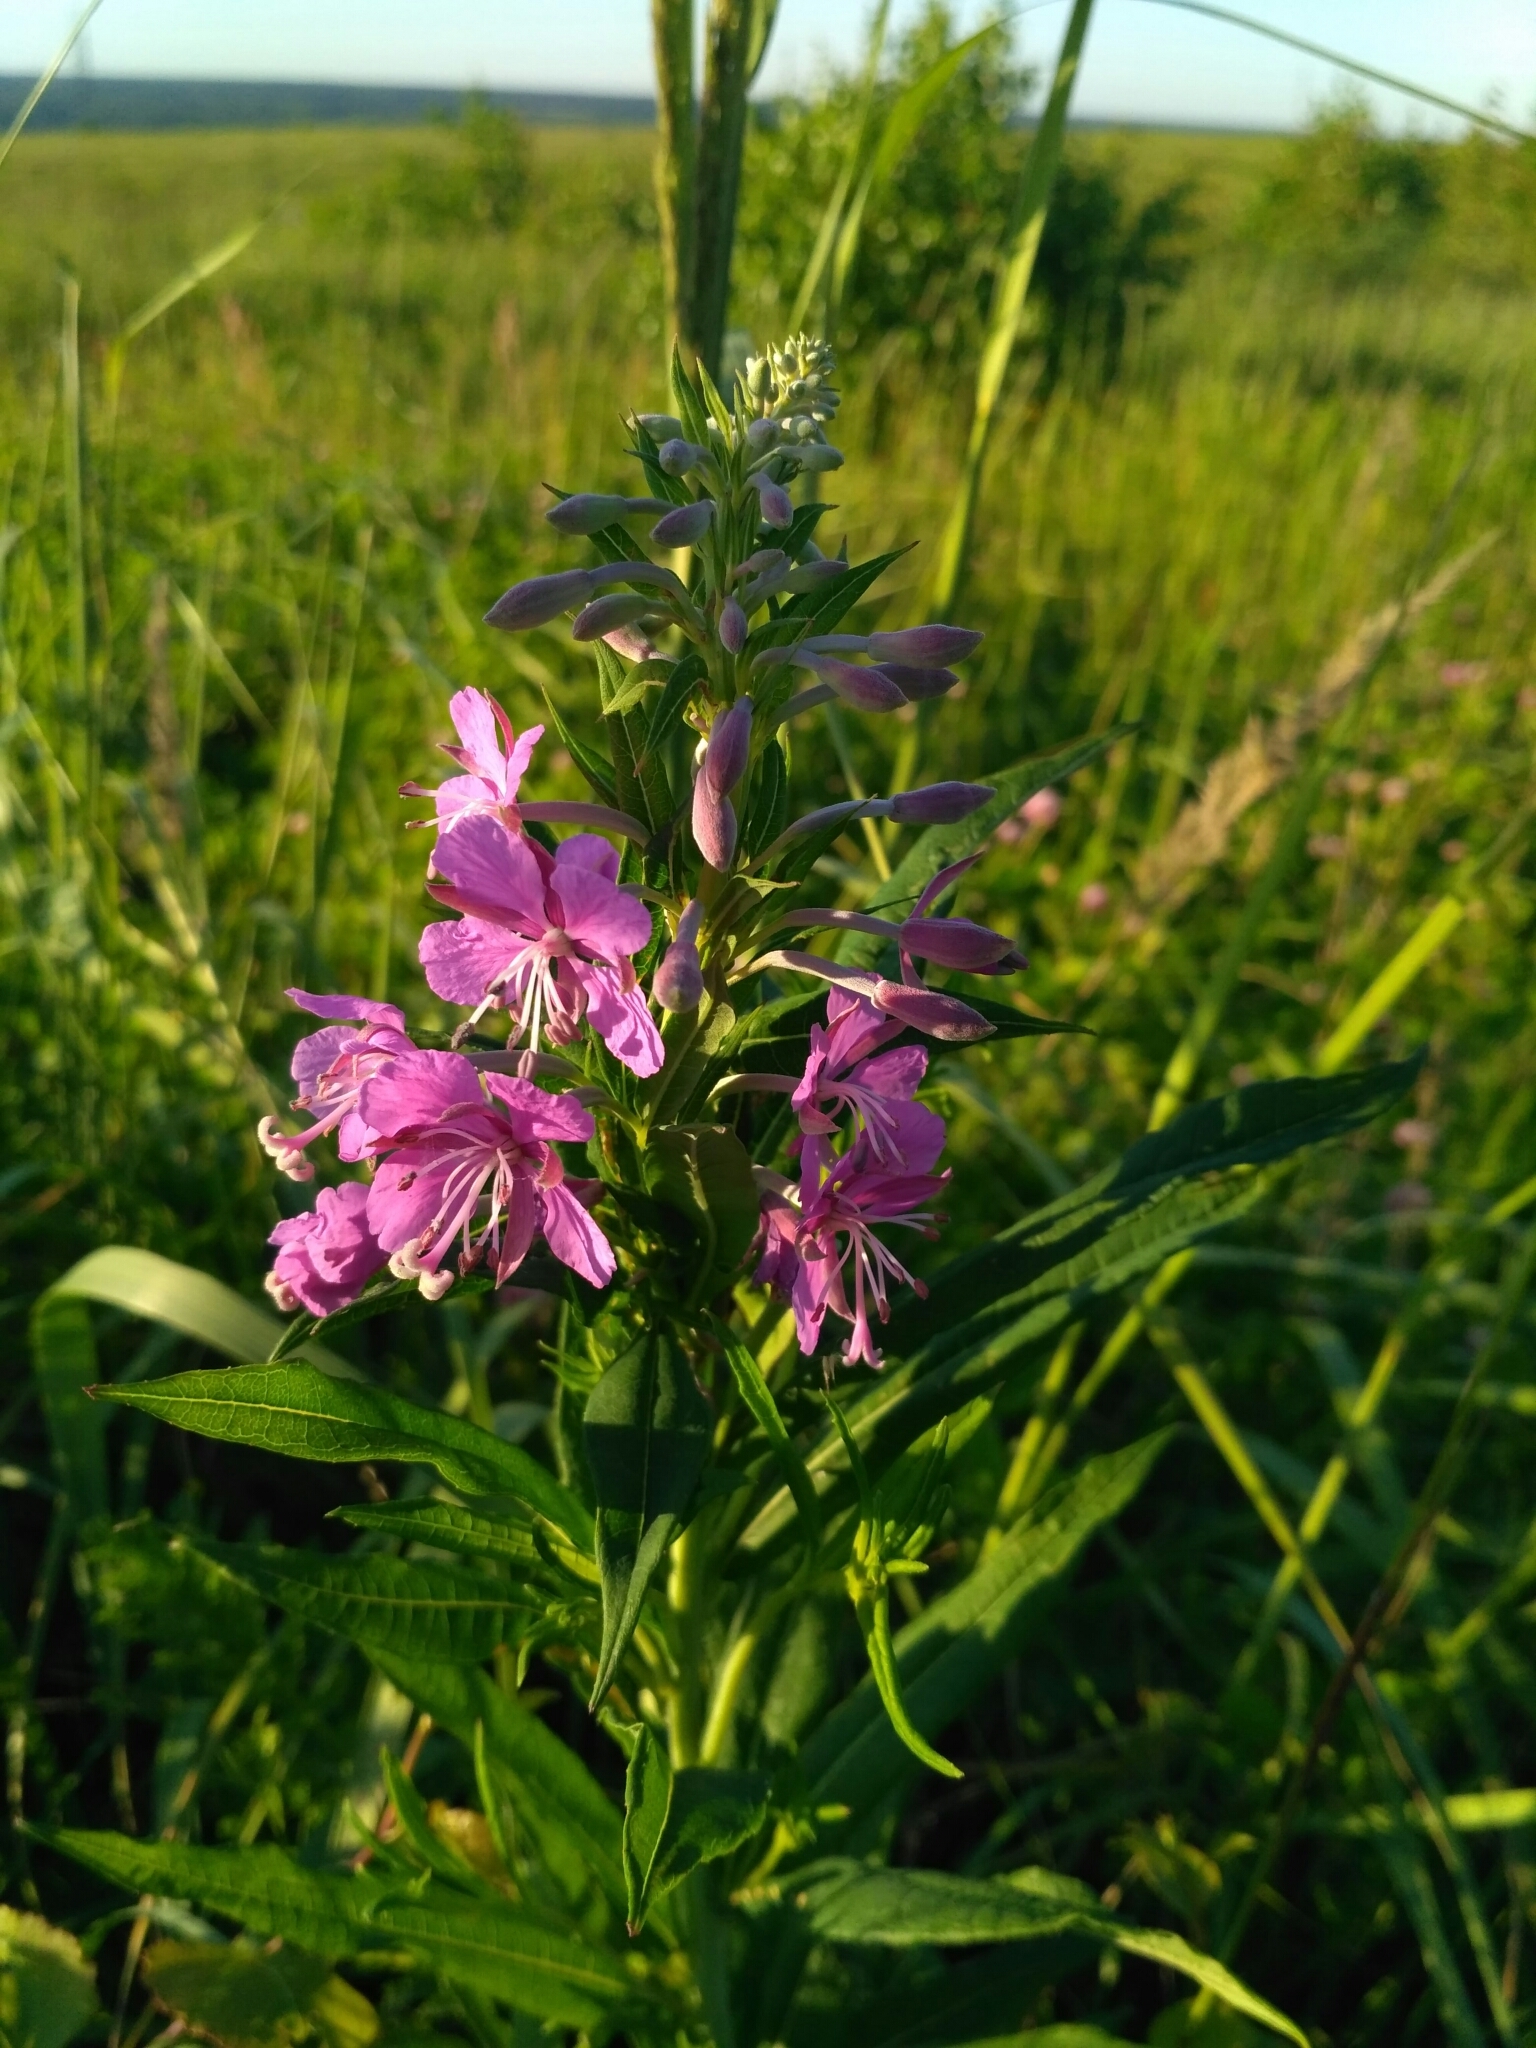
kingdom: Plantae
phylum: Tracheophyta
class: Magnoliopsida
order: Myrtales
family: Onagraceae
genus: Chamaenerion
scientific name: Chamaenerion angustifolium
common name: Fireweed
